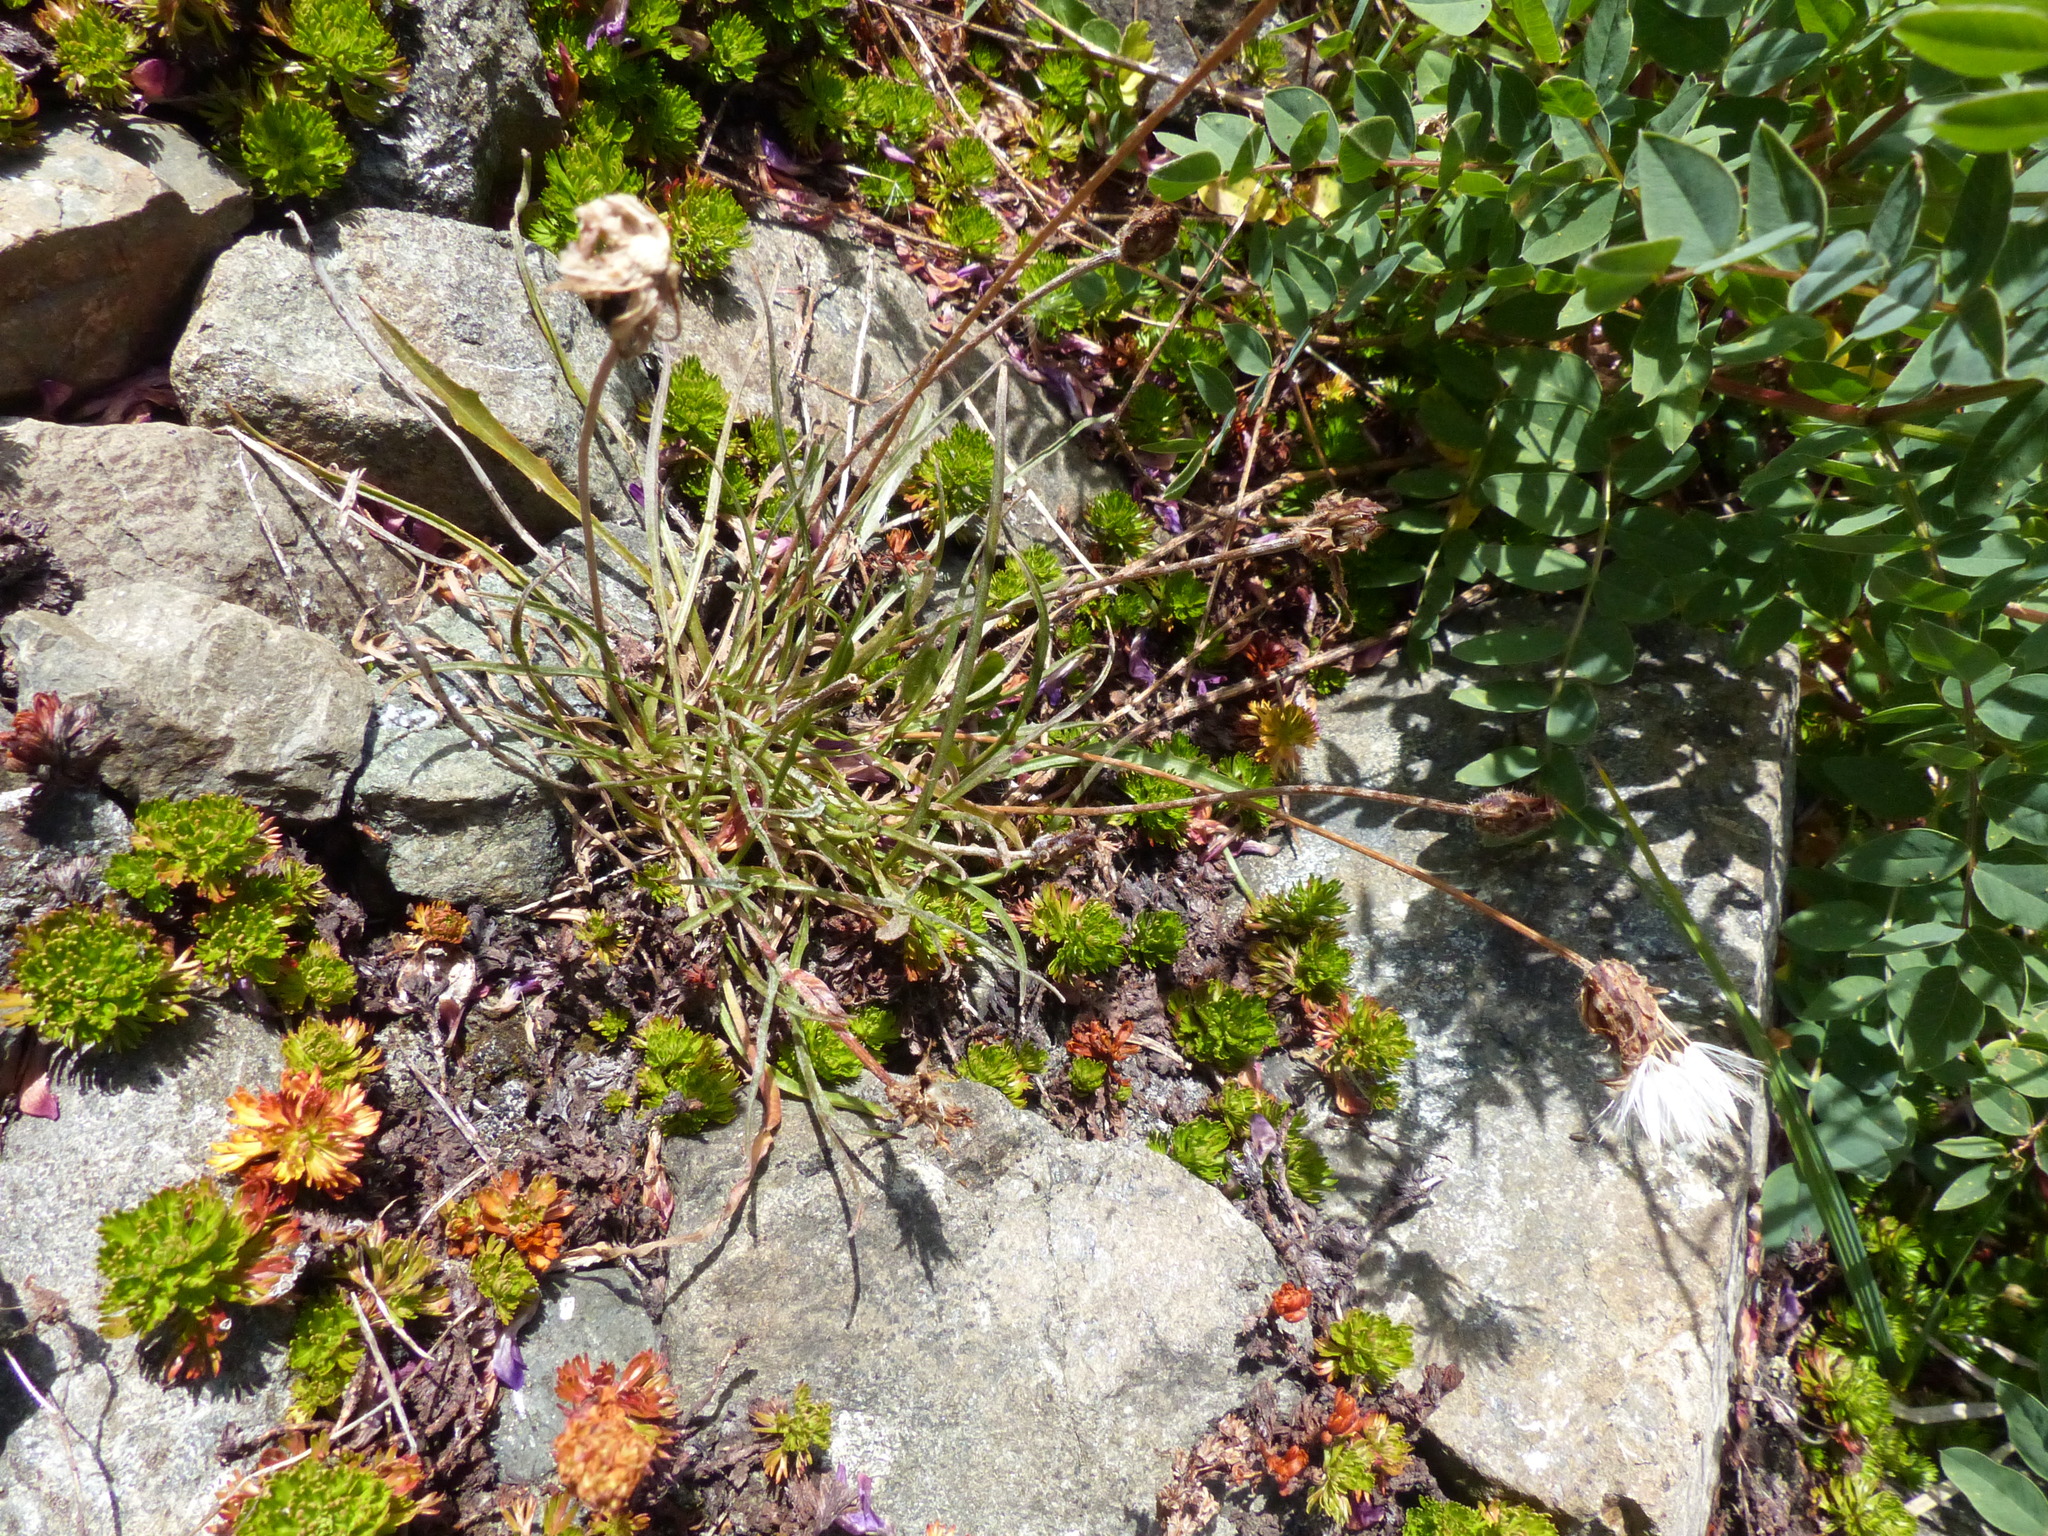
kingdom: Plantae
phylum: Tracheophyta
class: Magnoliopsida
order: Asterales
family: Asteraceae
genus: Agoseris
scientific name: Agoseris aurantiaca
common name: Mountain agoseris
